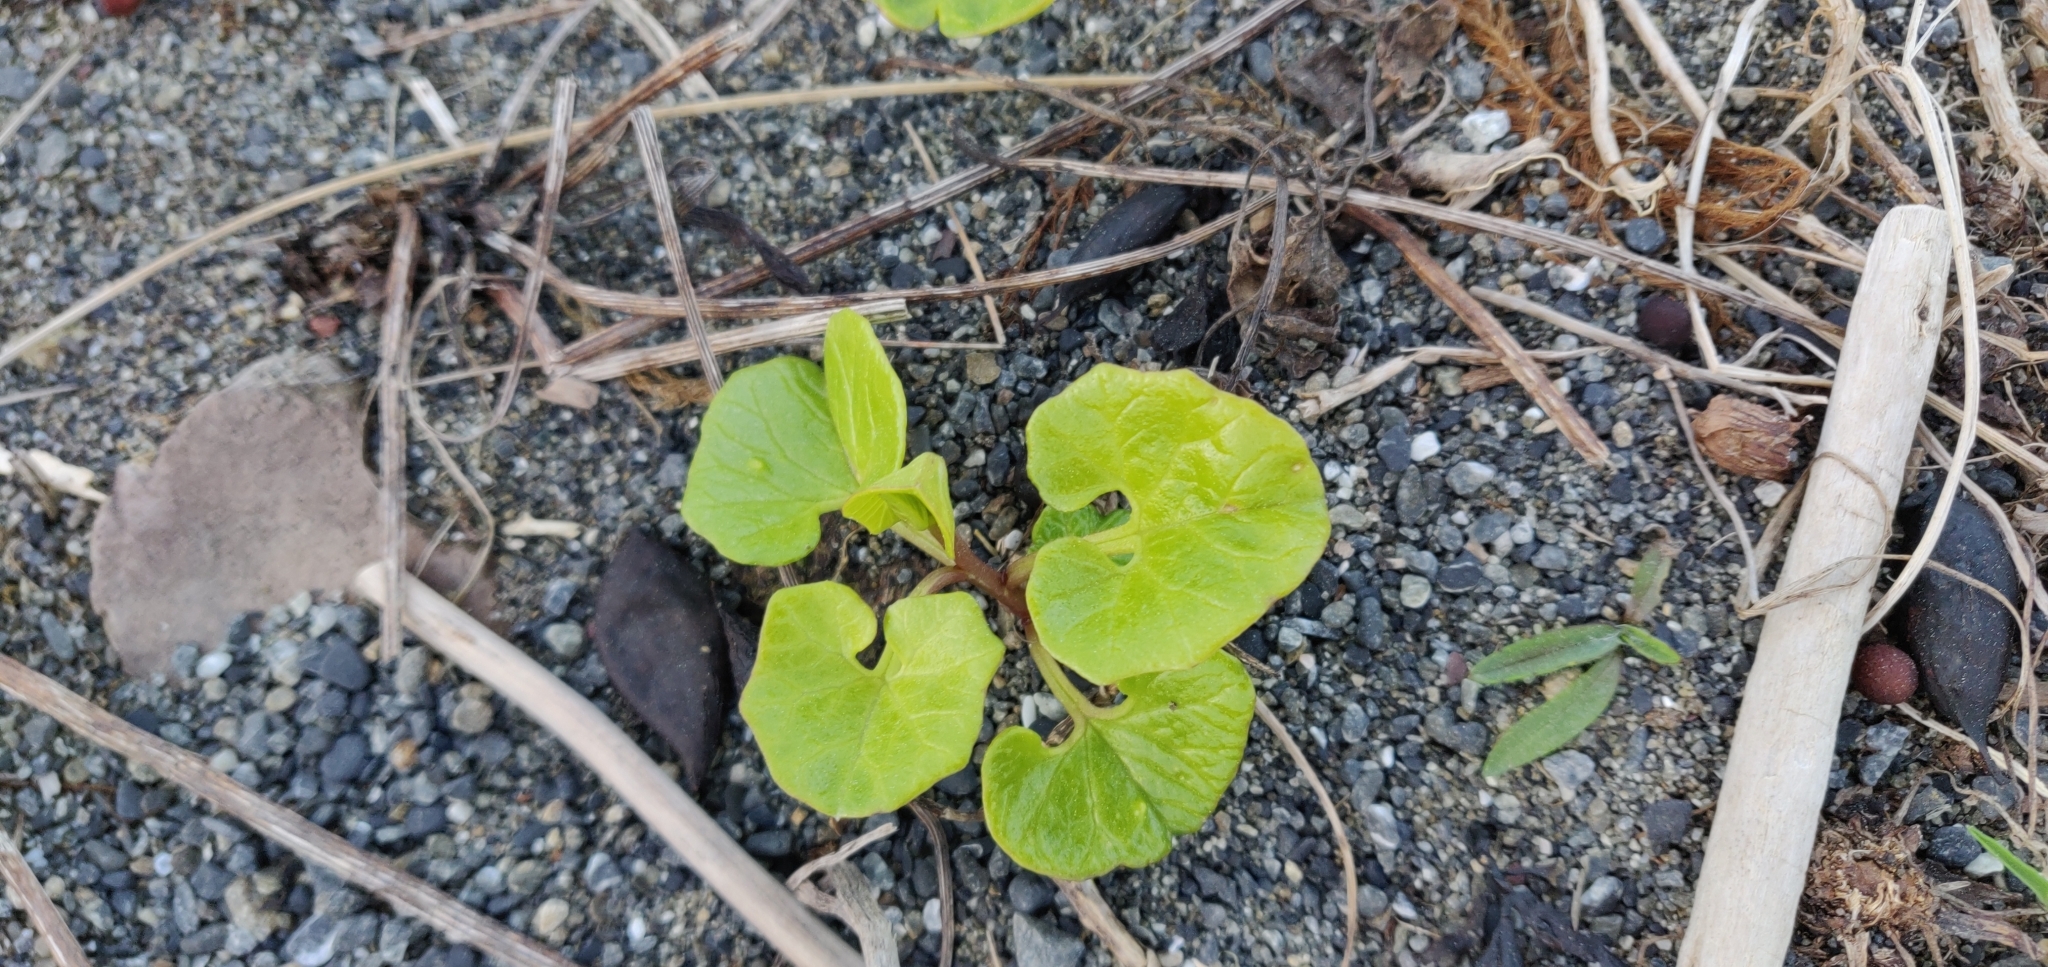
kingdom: Plantae
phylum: Tracheophyta
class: Magnoliopsida
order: Solanales
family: Convolvulaceae
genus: Calystegia
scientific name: Calystegia soldanella
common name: Sea bindweed
